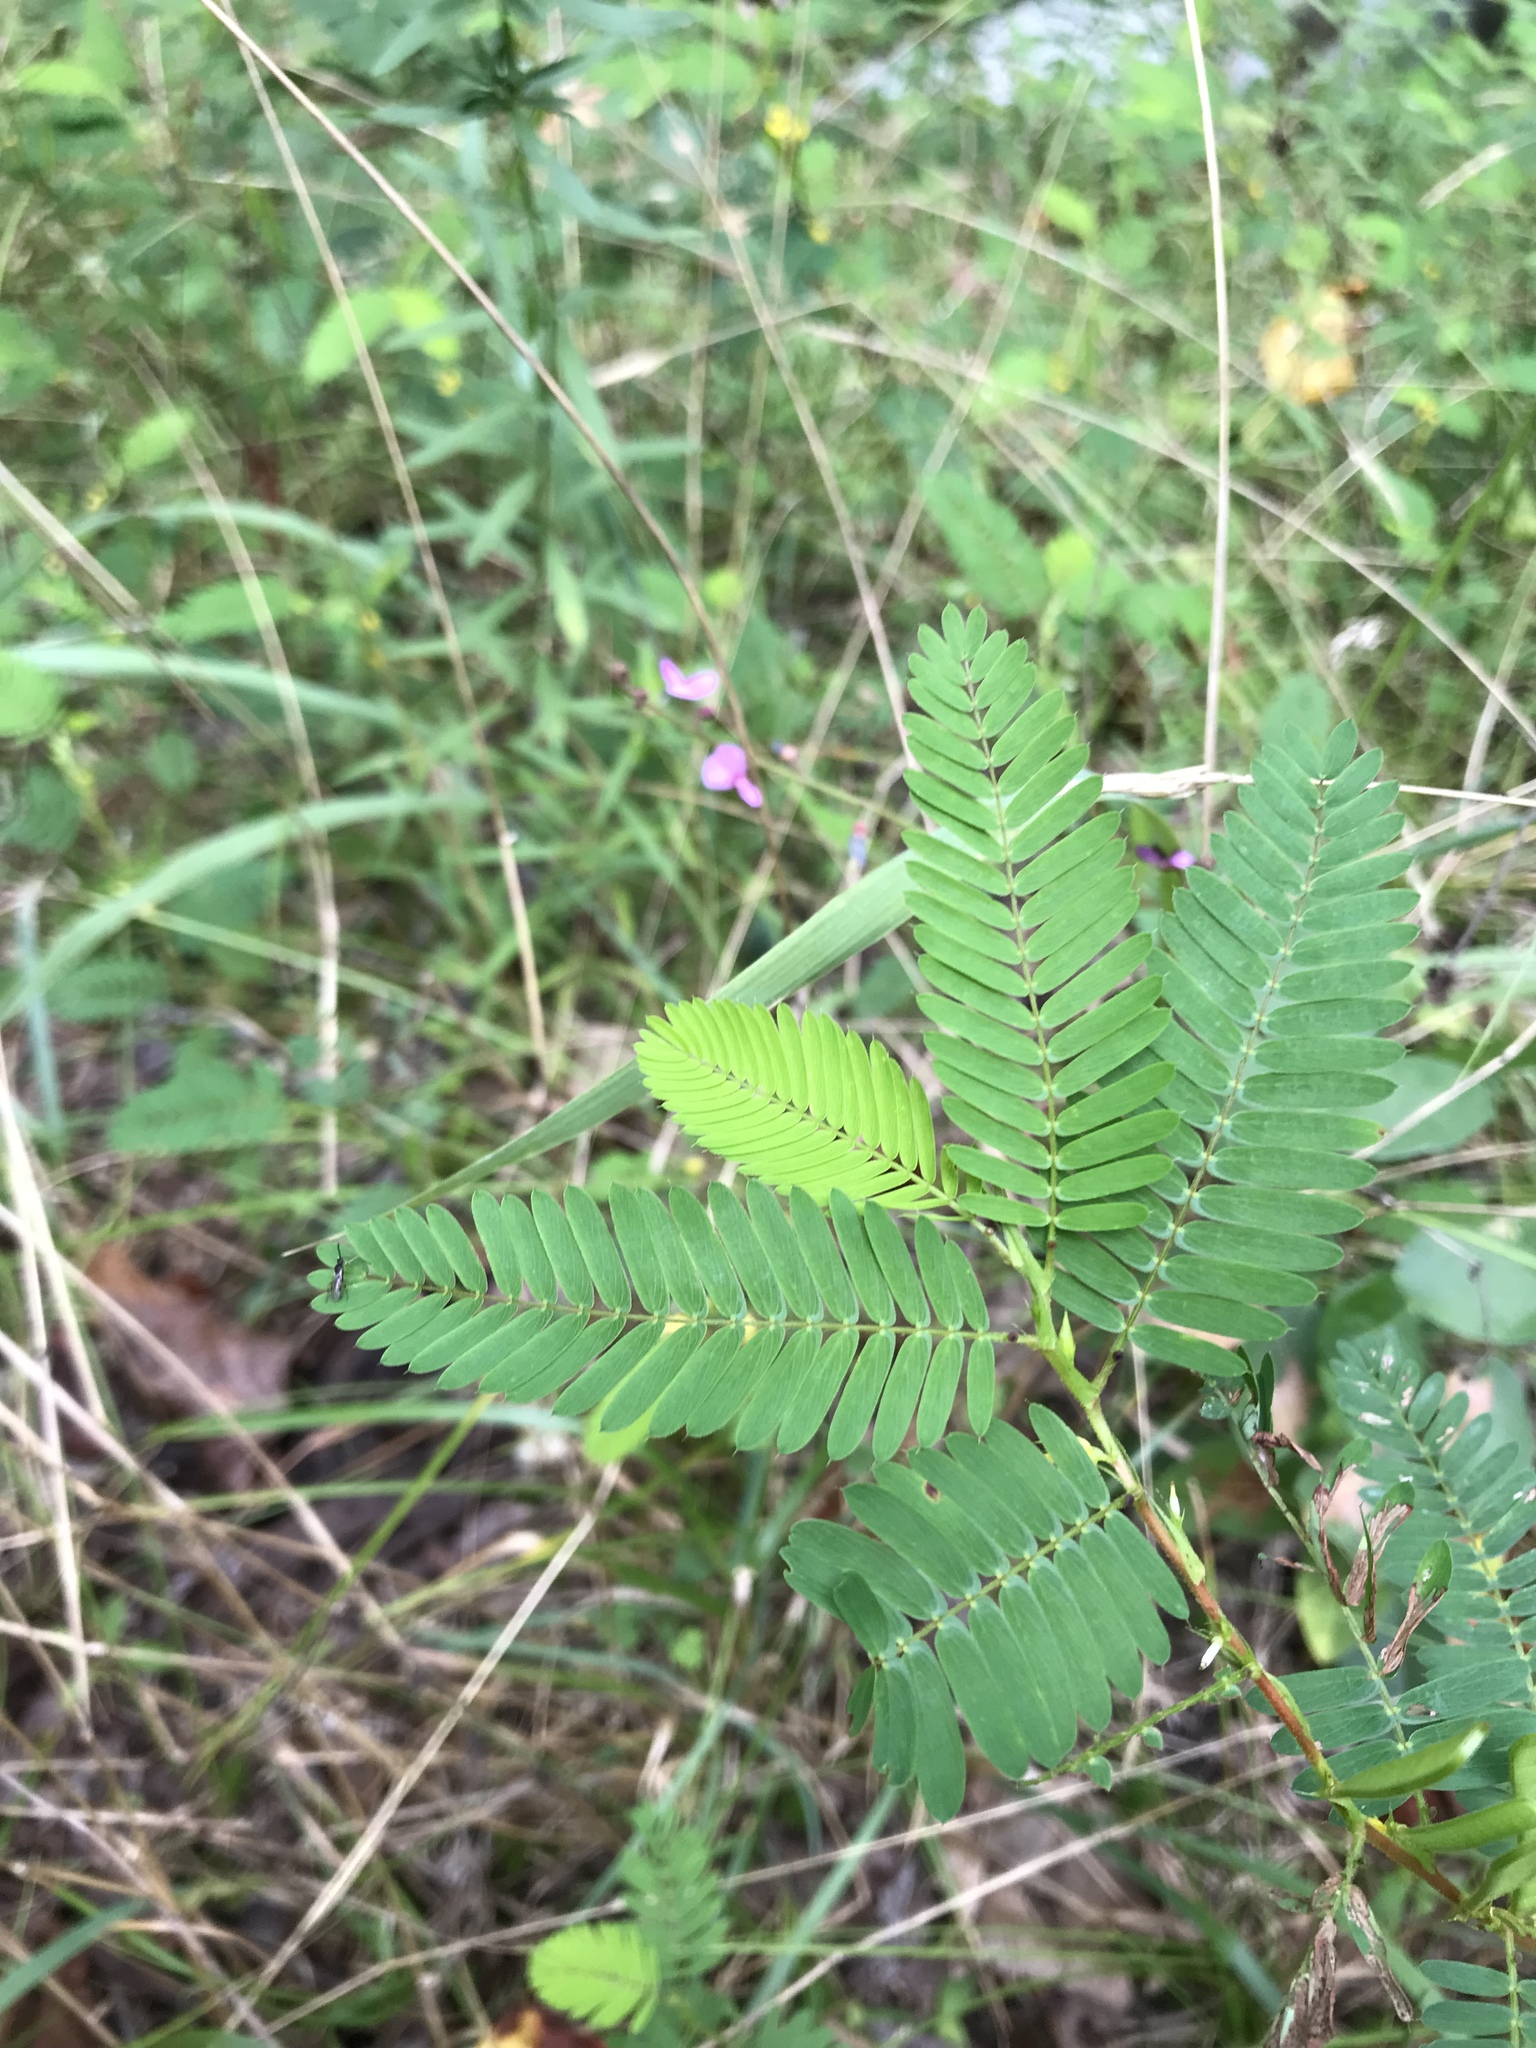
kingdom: Plantae
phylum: Tracheophyta
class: Magnoliopsida
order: Fabales
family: Fabaceae
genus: Chamaecrista
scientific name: Chamaecrista nictitans
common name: Sensitive cassia
